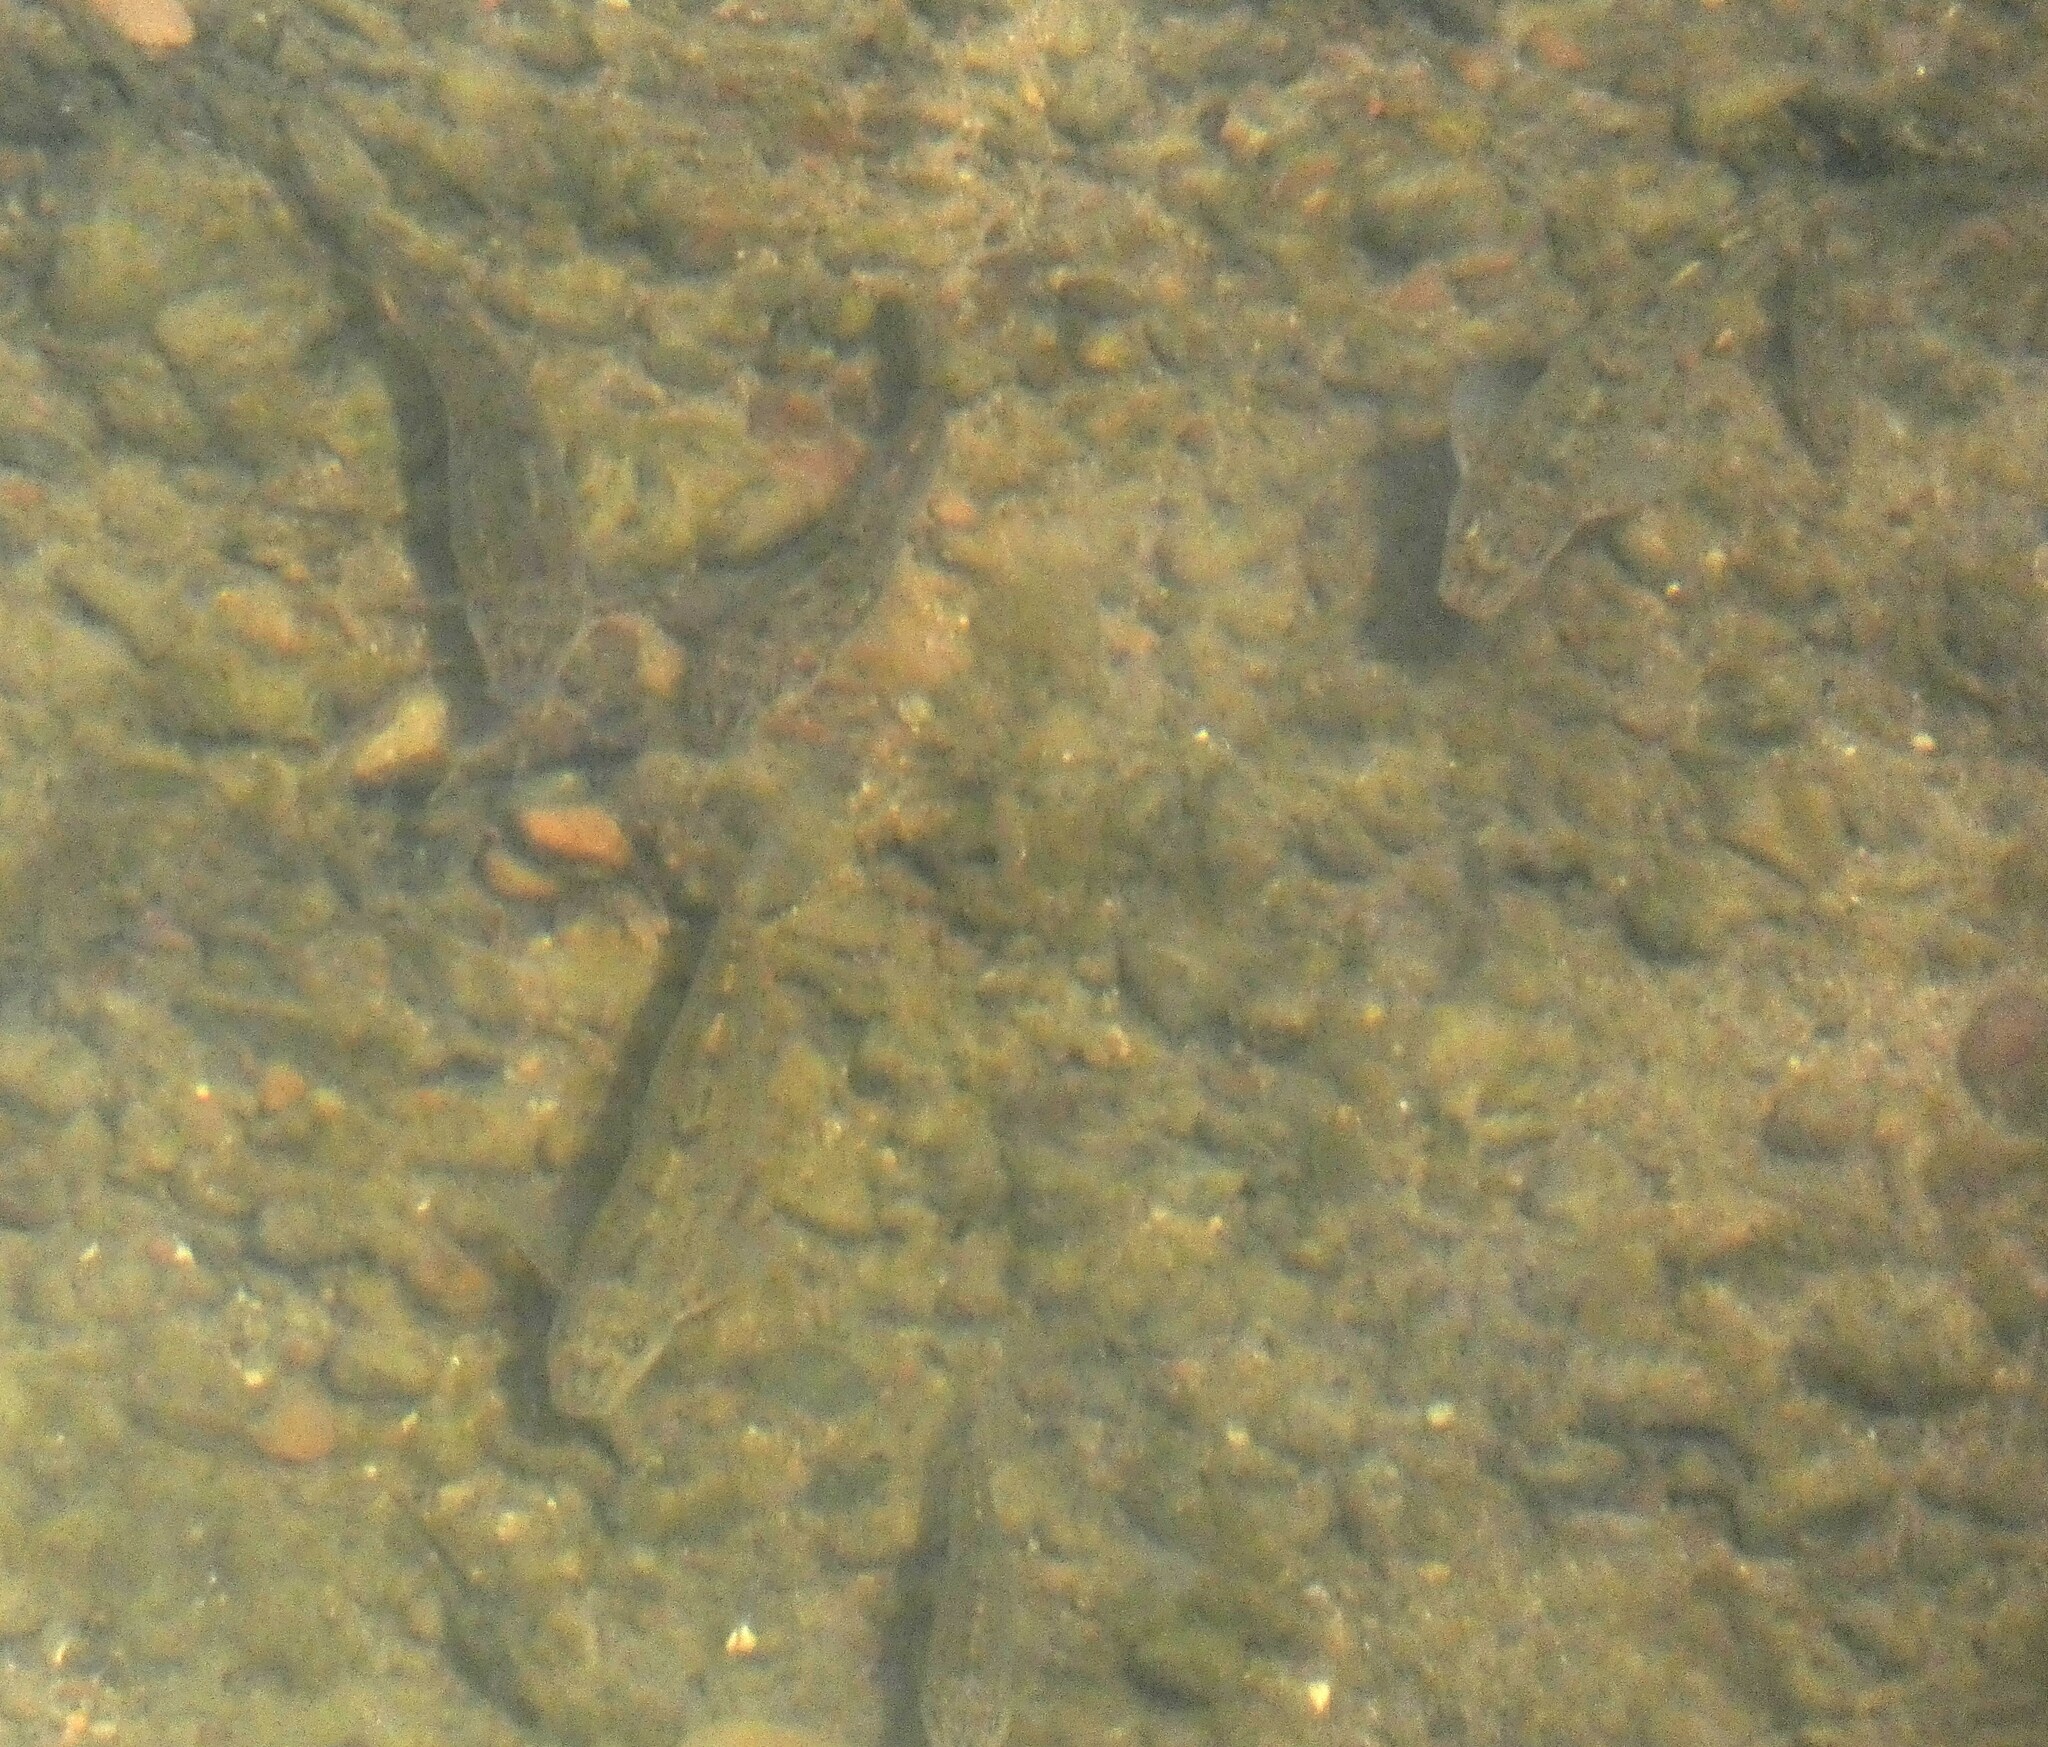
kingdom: Animalia
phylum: Chordata
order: Cypriniformes
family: Cyprinidae
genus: Gobio
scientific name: Gobio gobio
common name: Gudgeon
